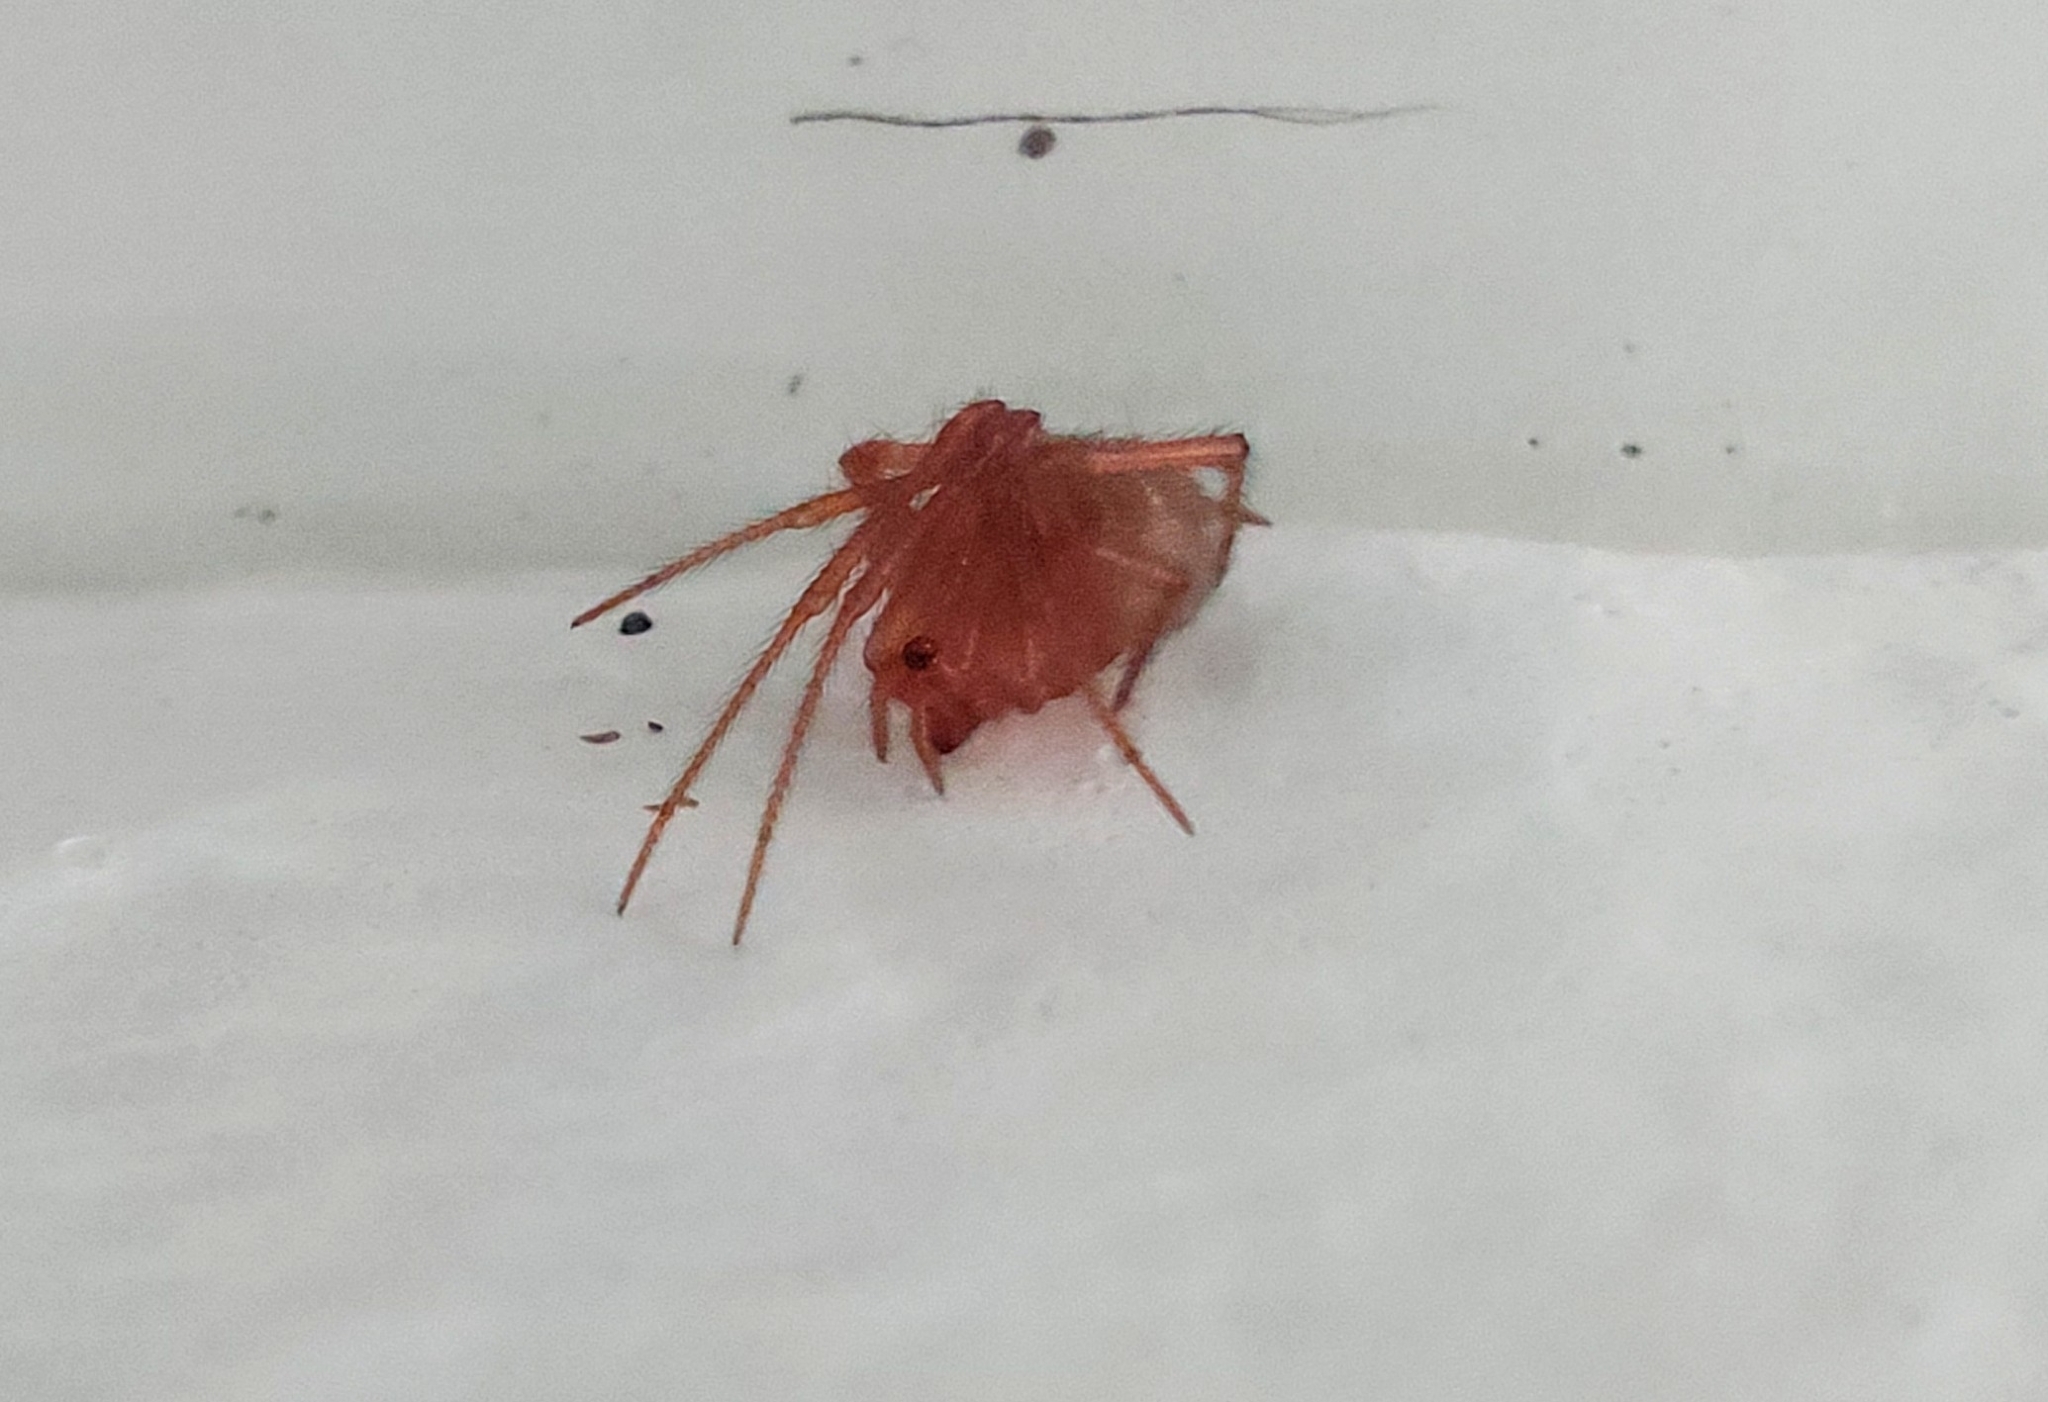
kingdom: Animalia
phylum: Arthropoda
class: Arachnida
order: Araneae
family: Theridiidae
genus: Nesticodes
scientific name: Nesticodes rufipes
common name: Cobweb spiders
